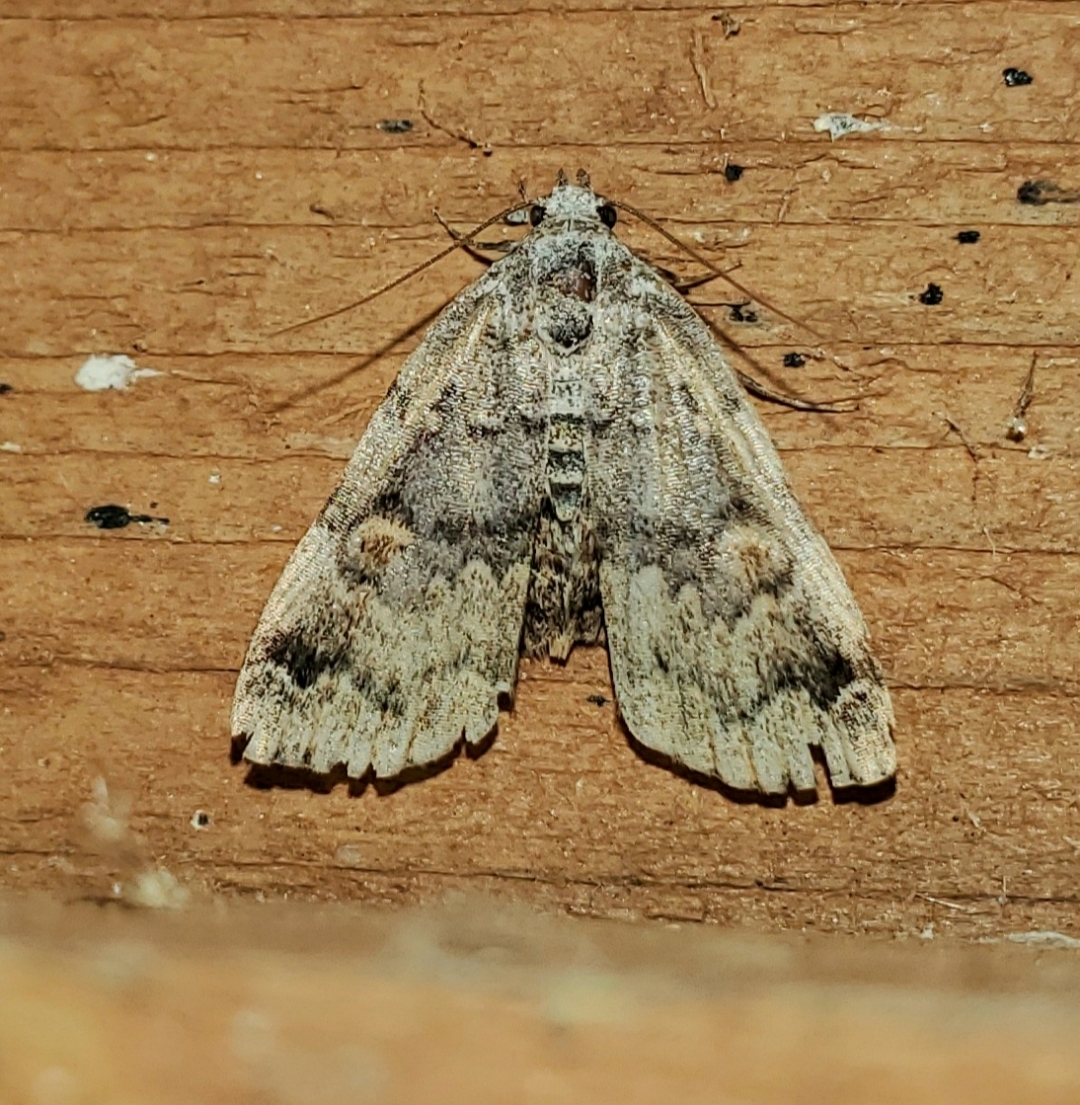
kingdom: Animalia
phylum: Arthropoda
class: Insecta
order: Lepidoptera
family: Erebidae
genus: Idia
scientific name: Idia americalis
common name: American idia moth
